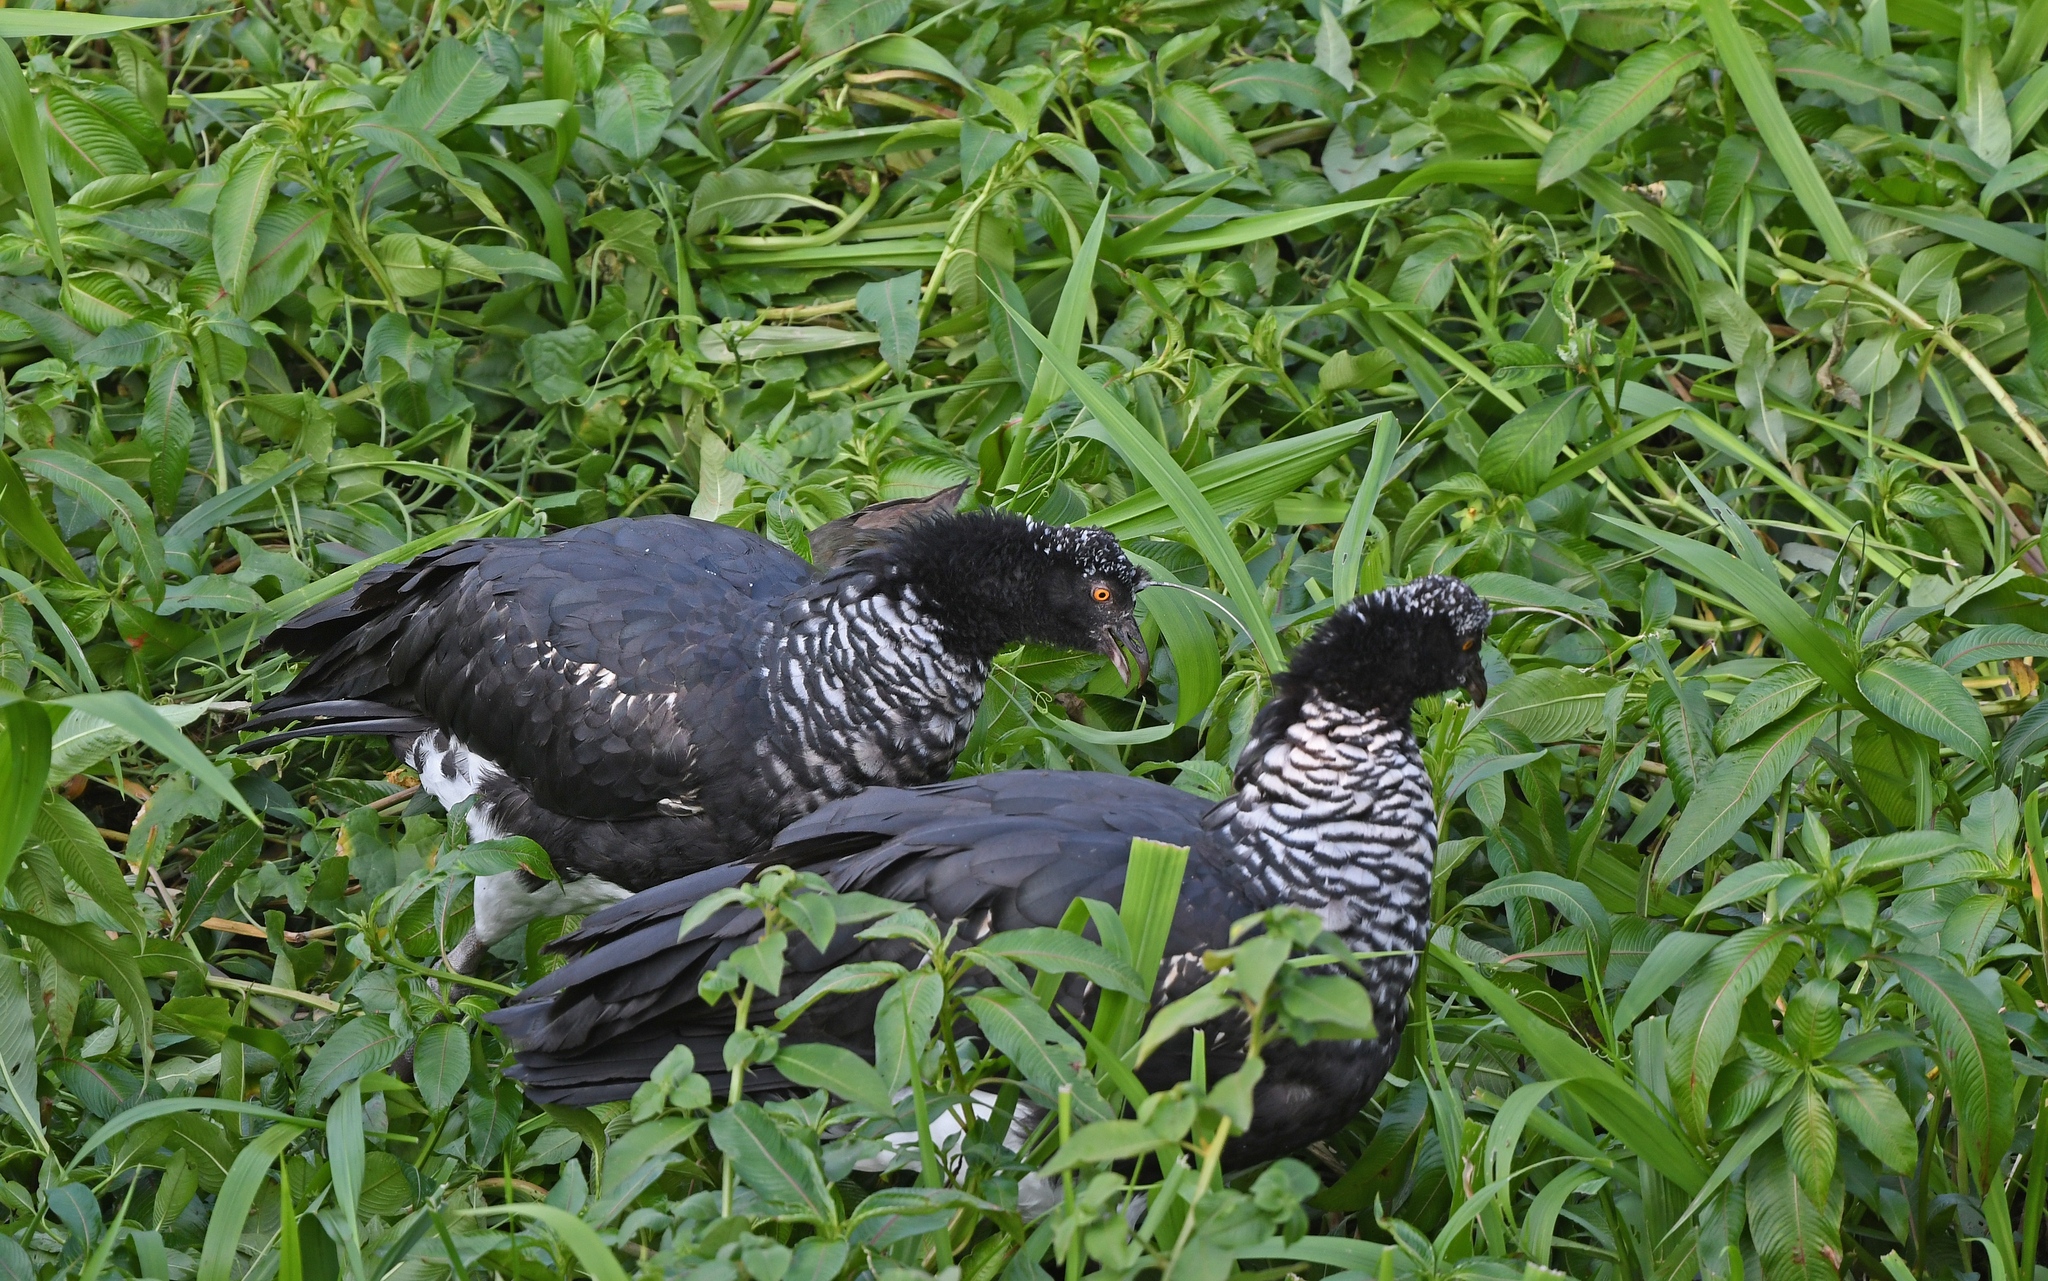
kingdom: Animalia
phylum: Chordata
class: Aves
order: Anseriformes
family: Anhimidae
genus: Anhima
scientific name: Anhima cornuta
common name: Horned screamer
